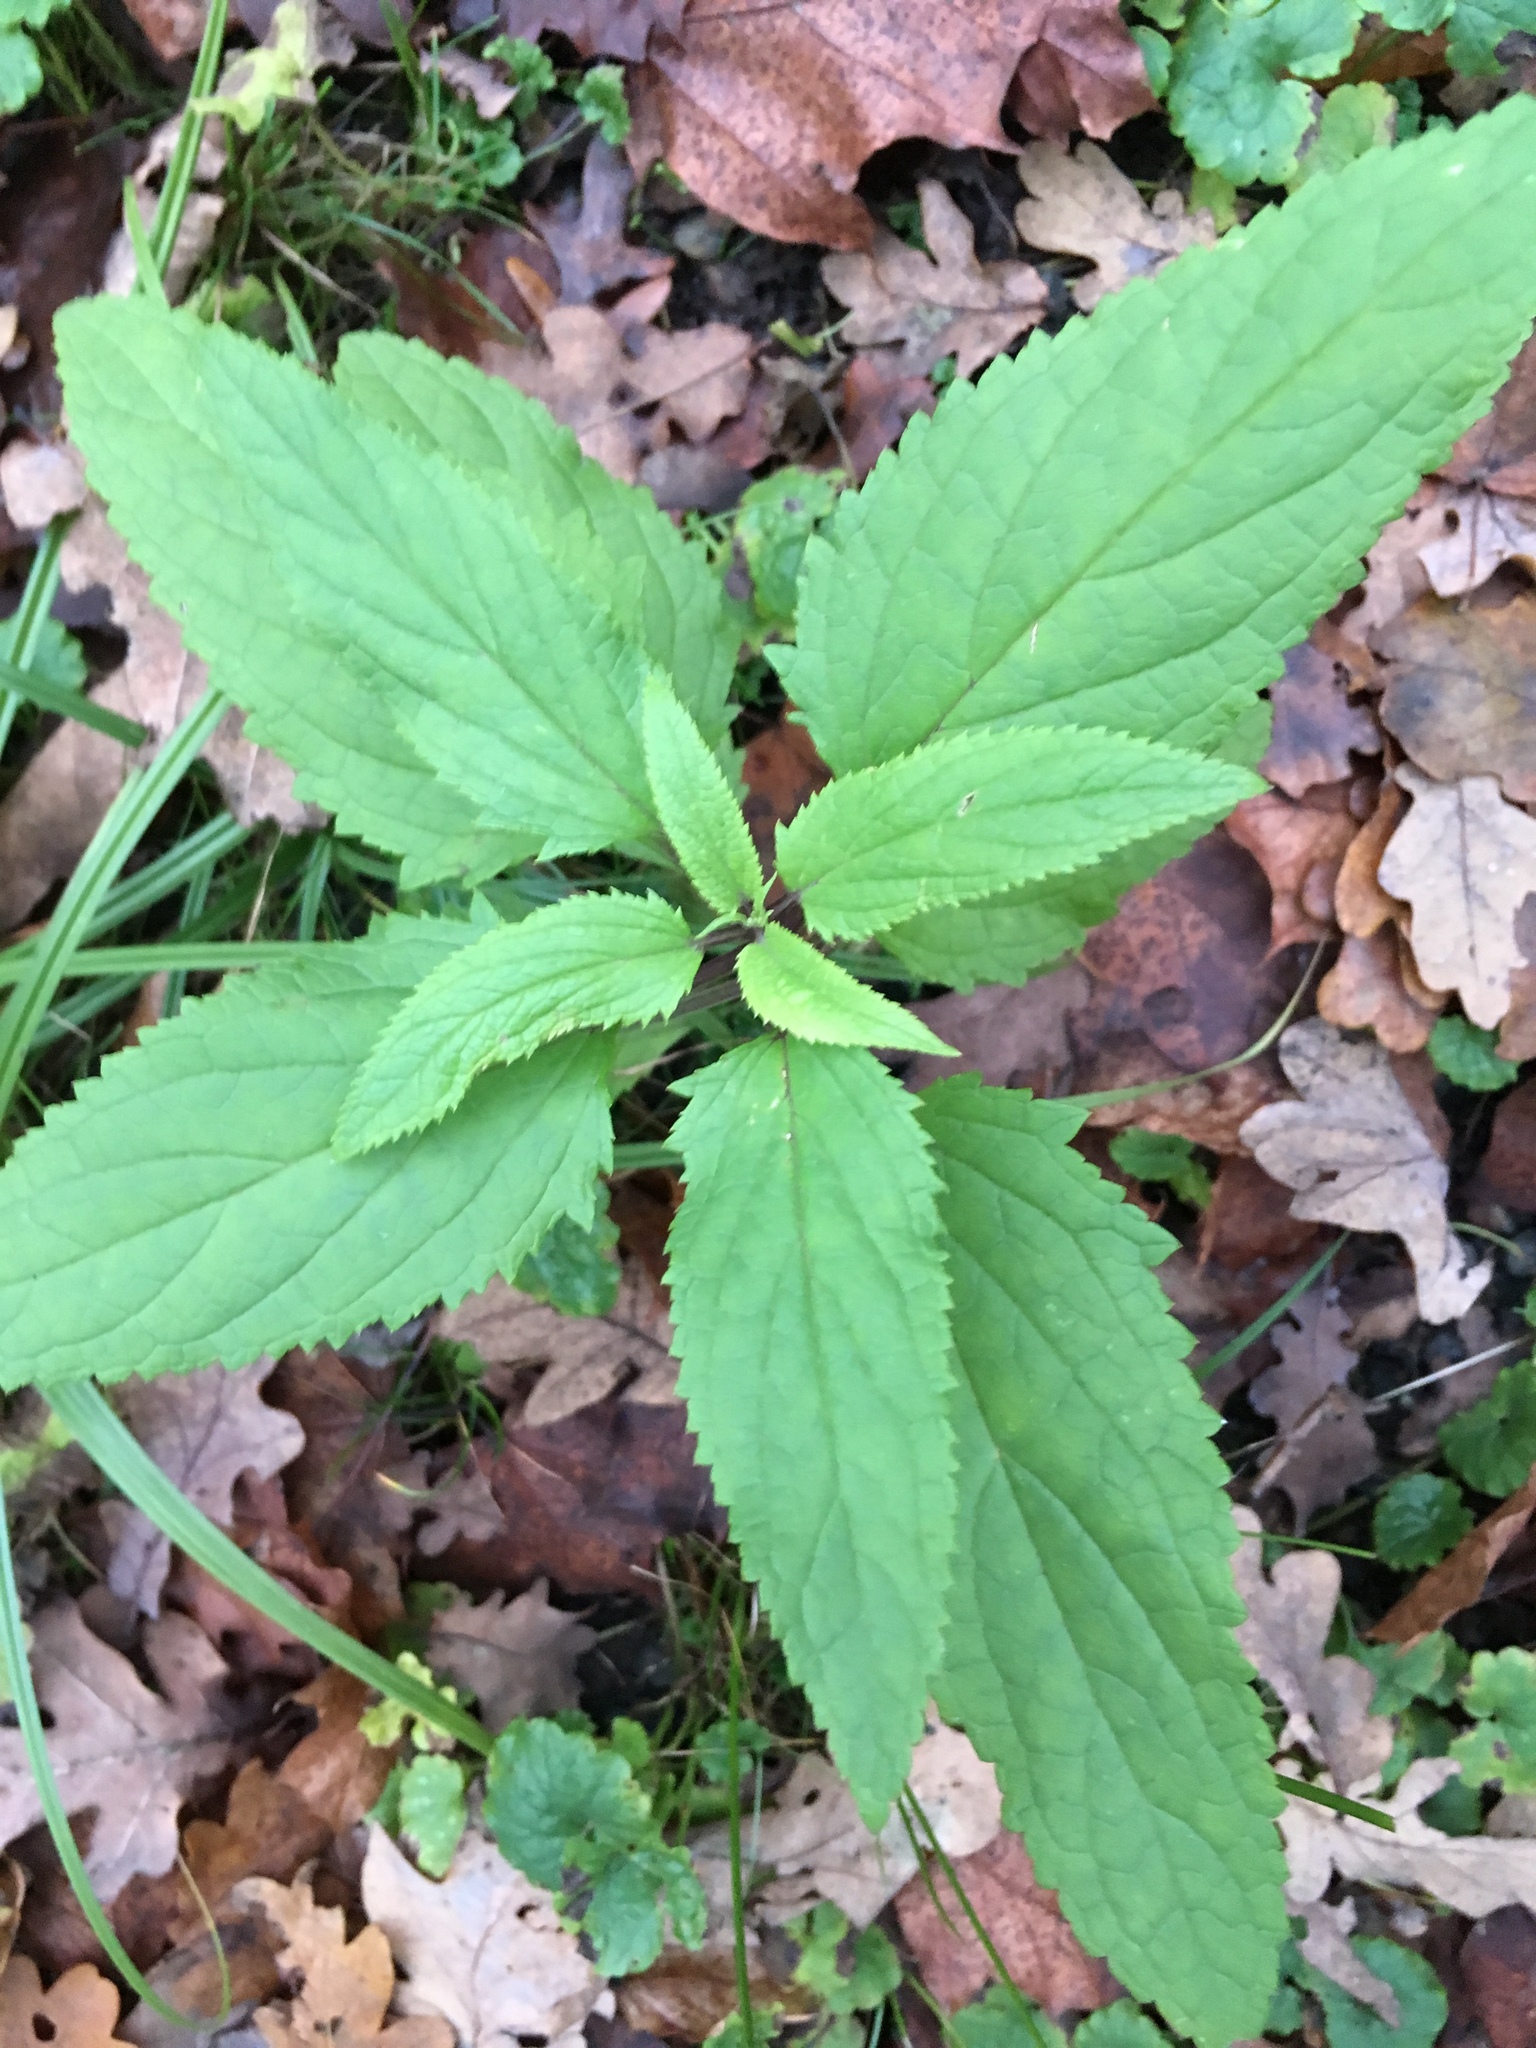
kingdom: Plantae
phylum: Tracheophyta
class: Magnoliopsida
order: Lamiales
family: Scrophulariaceae
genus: Scrophularia
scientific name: Scrophularia nodosa
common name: Common figwort
